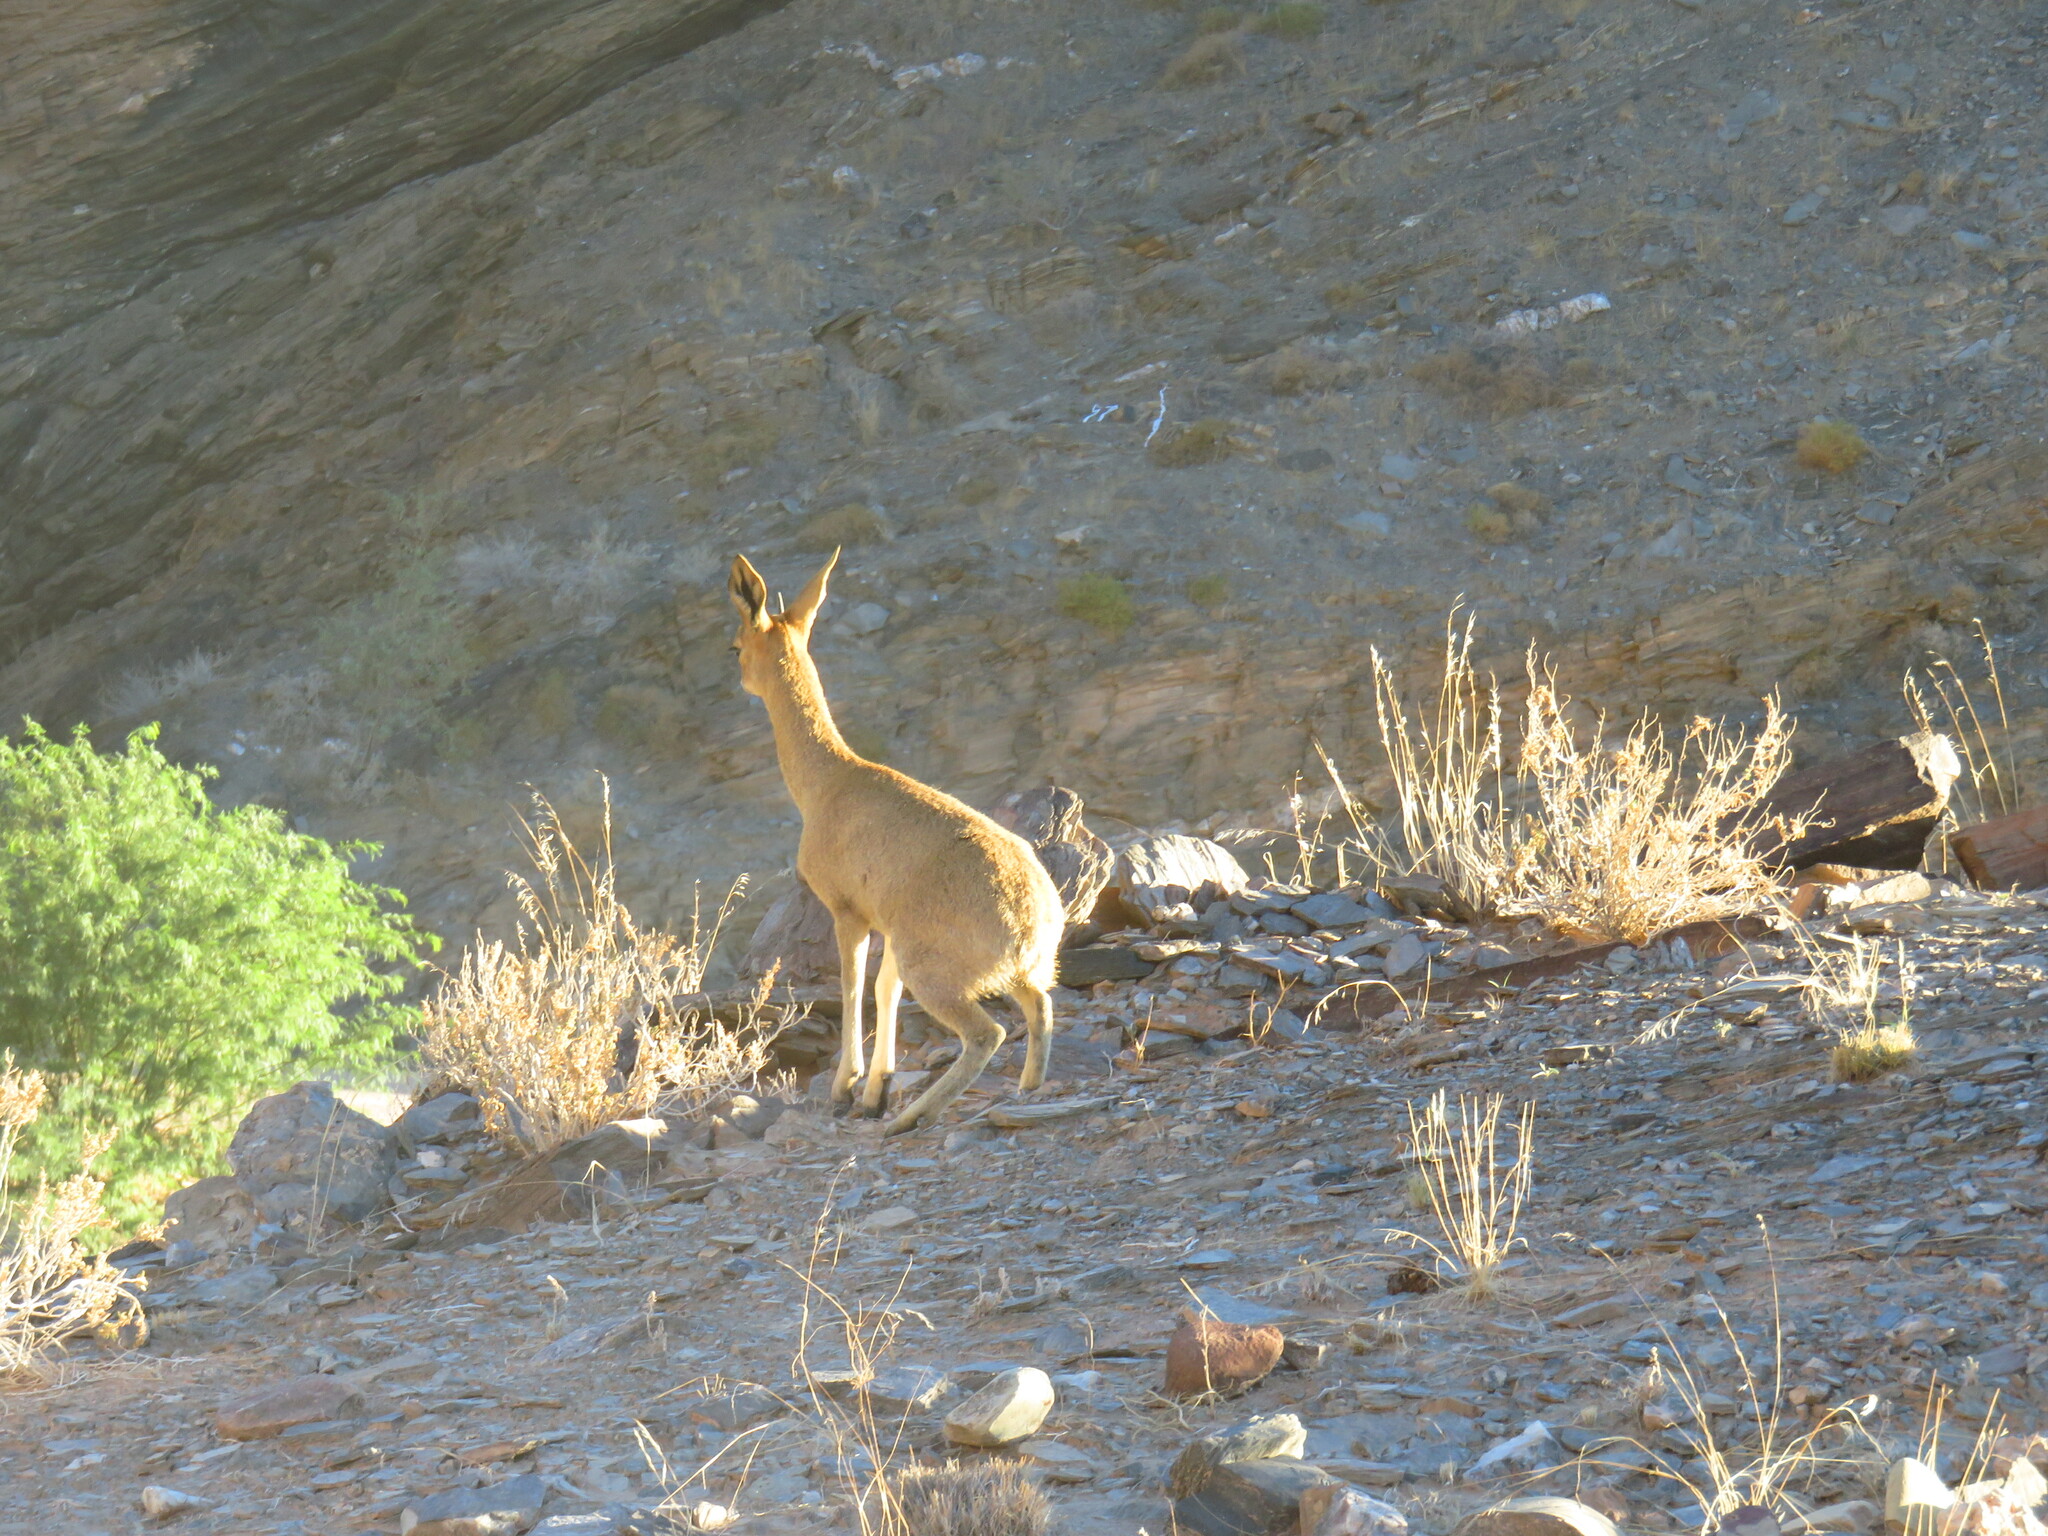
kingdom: Animalia
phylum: Chordata
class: Mammalia
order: Artiodactyla
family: Bovidae
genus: Oreotragus
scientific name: Oreotragus oreotragus
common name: Klipspringer
